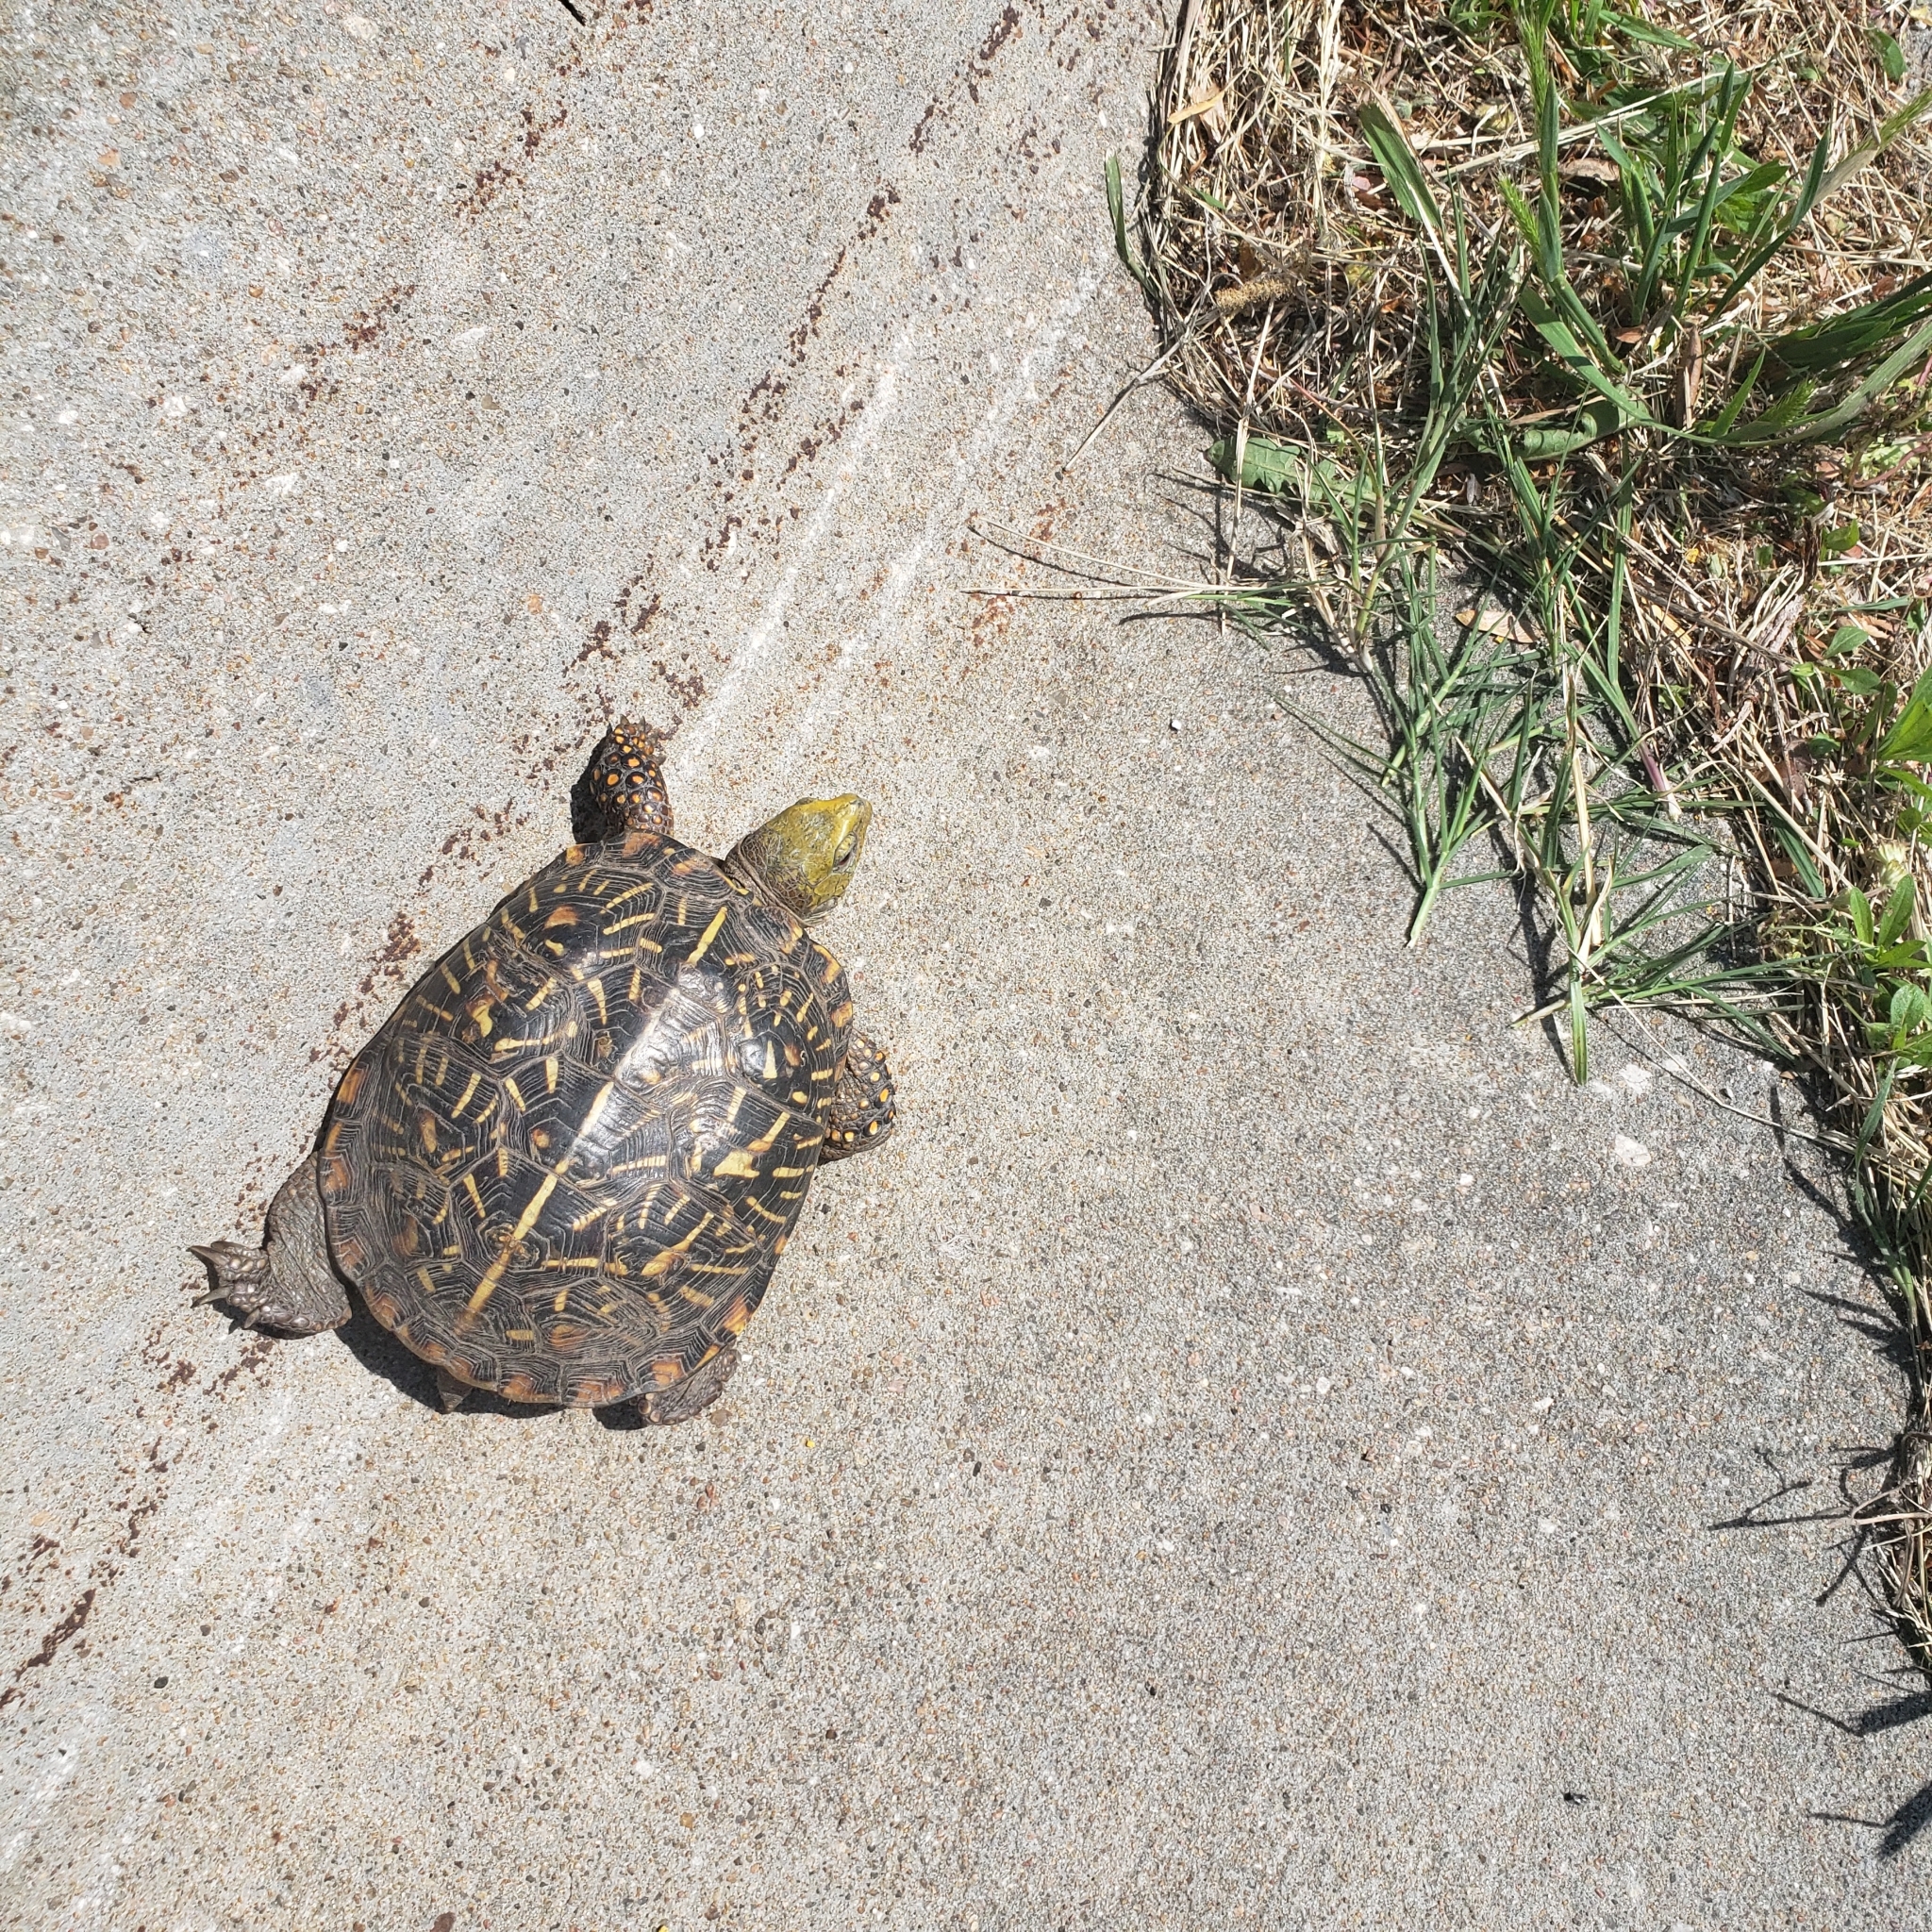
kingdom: Animalia
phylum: Chordata
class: Testudines
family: Emydidae
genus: Terrapene
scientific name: Terrapene ornata
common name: Western box turtle
